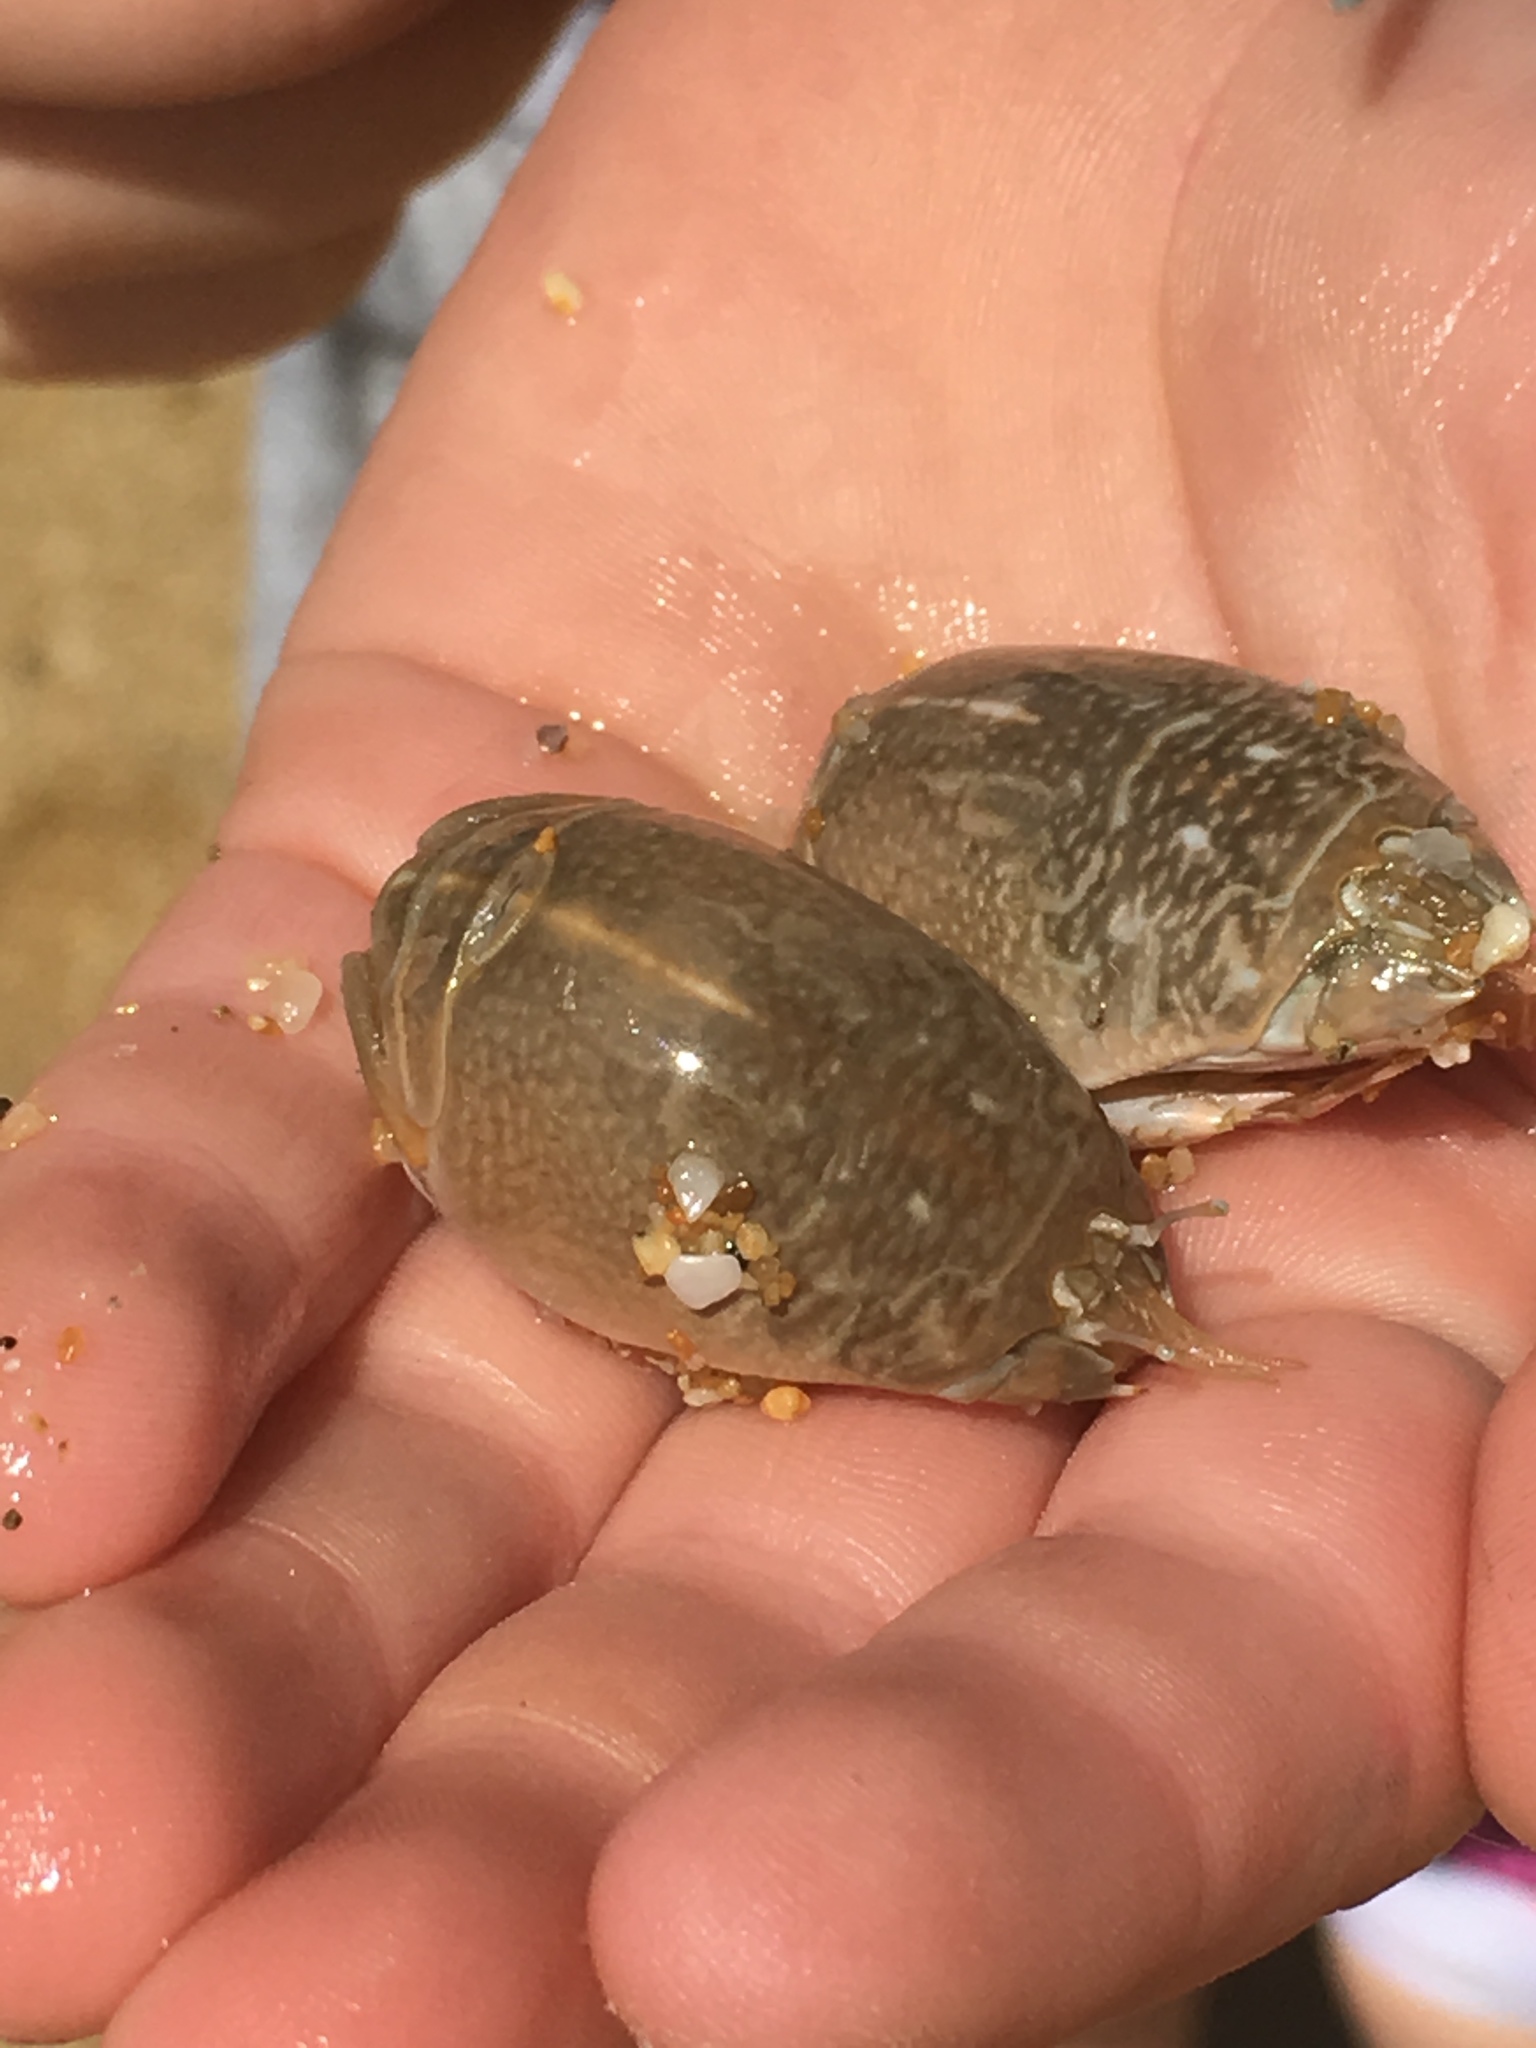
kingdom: Animalia
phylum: Arthropoda
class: Malacostraca
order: Decapoda
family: Hippidae
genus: Emerita
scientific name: Emerita analoga
